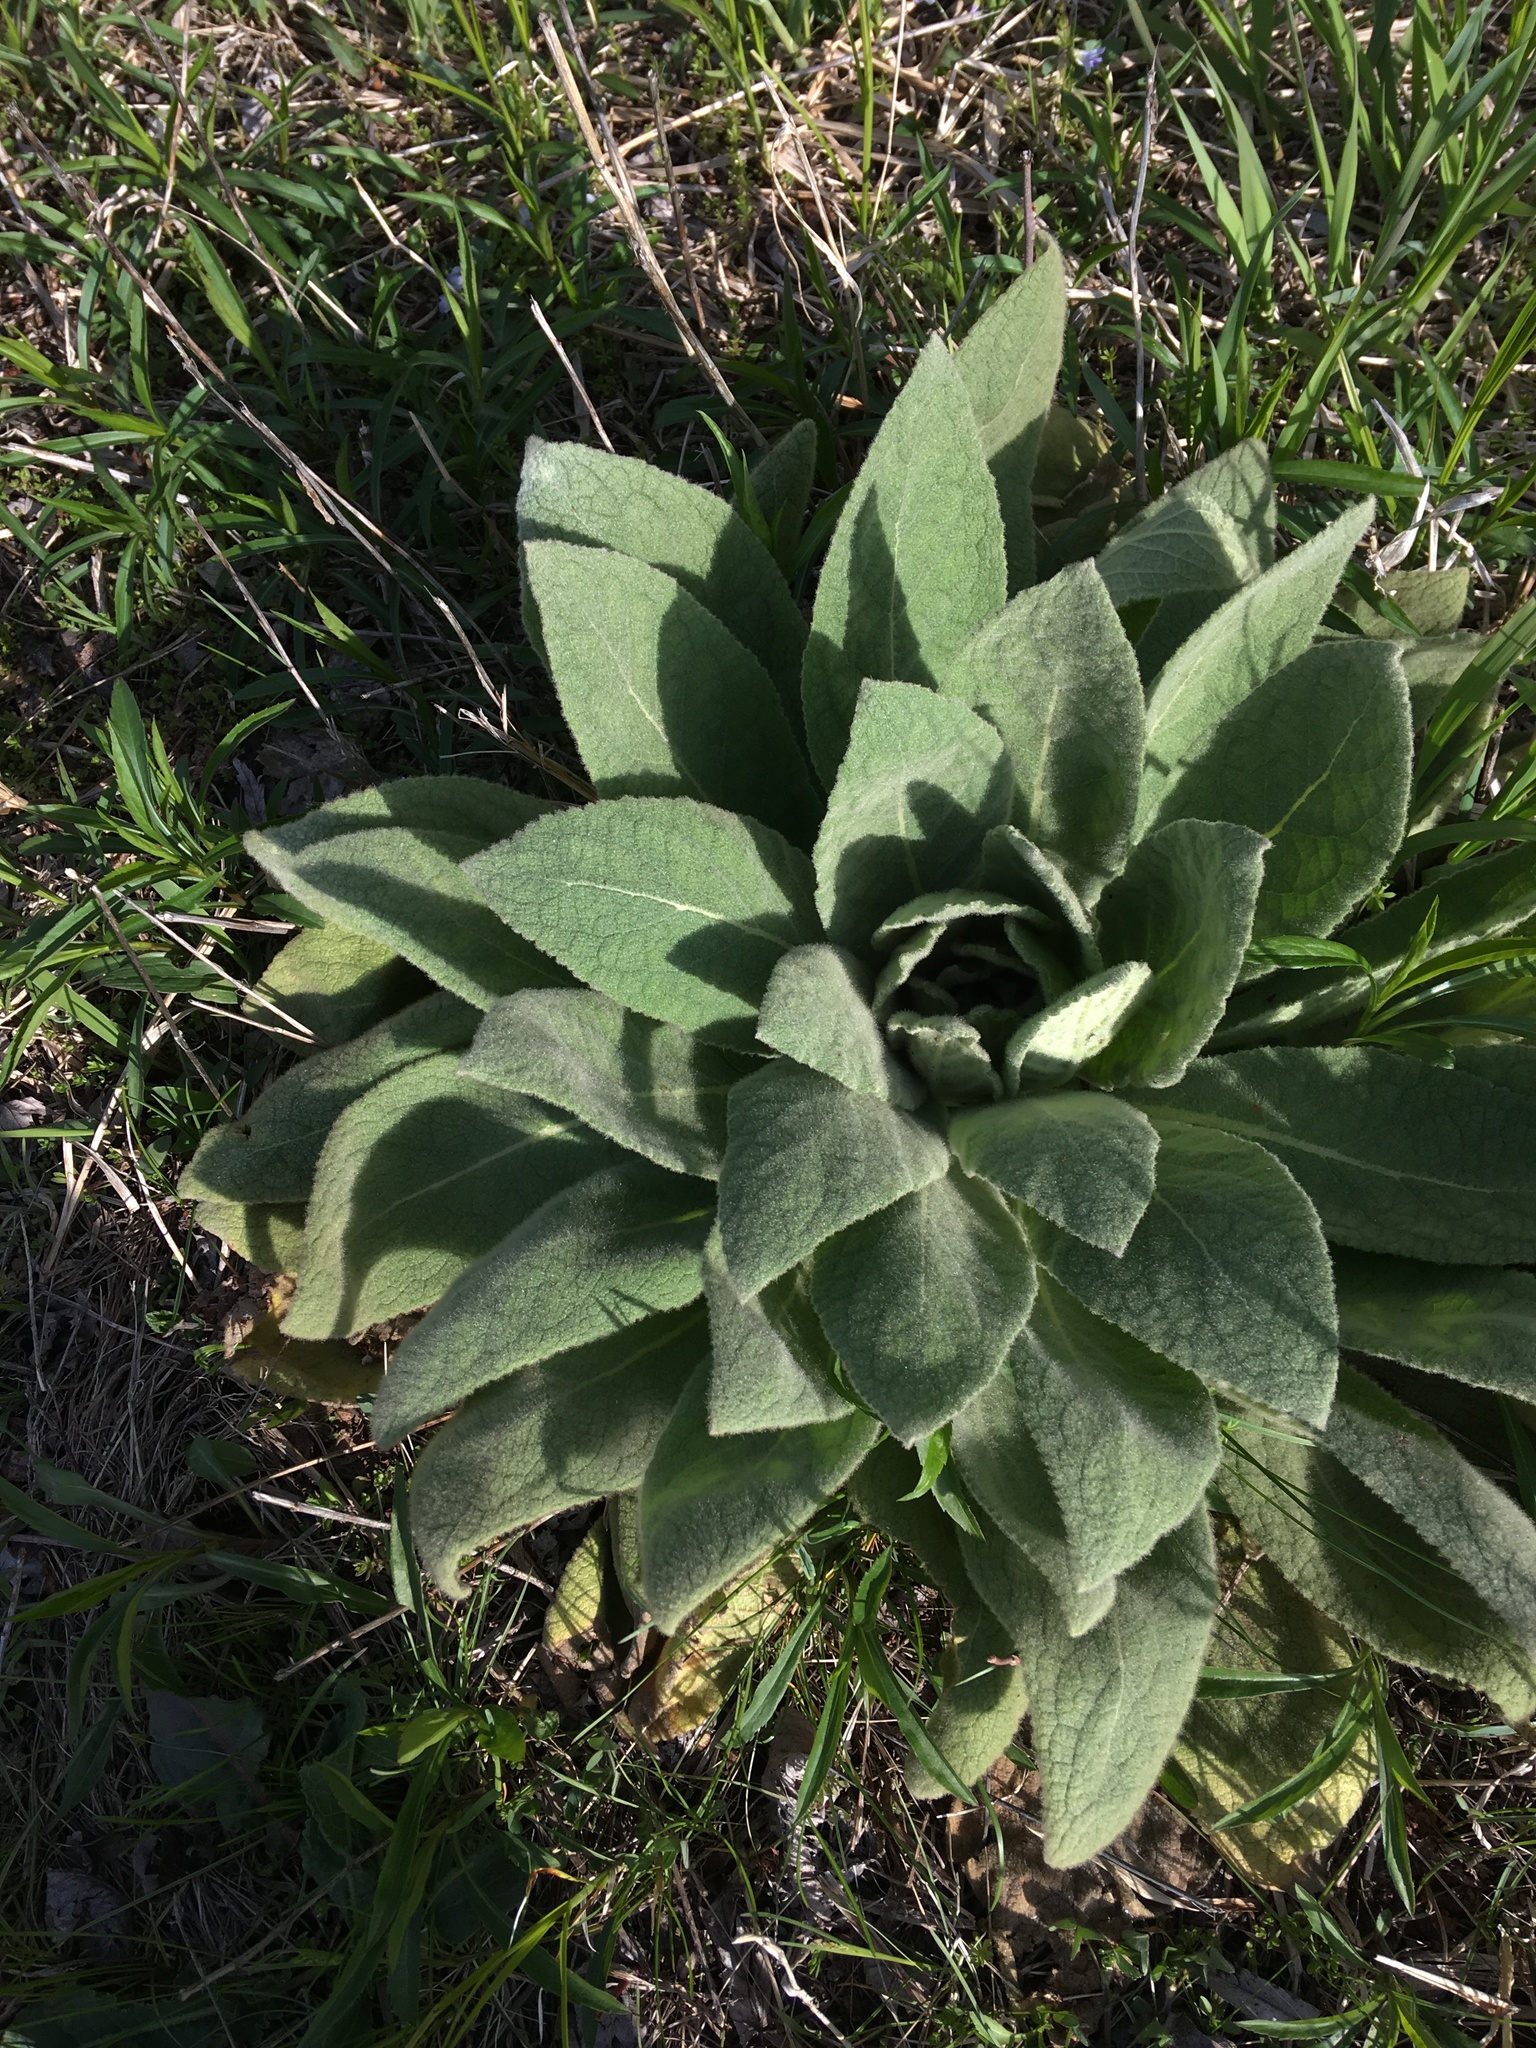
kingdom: Plantae
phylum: Tracheophyta
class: Magnoliopsida
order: Lamiales
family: Scrophulariaceae
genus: Verbascum
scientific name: Verbascum thapsus
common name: Common mullein
